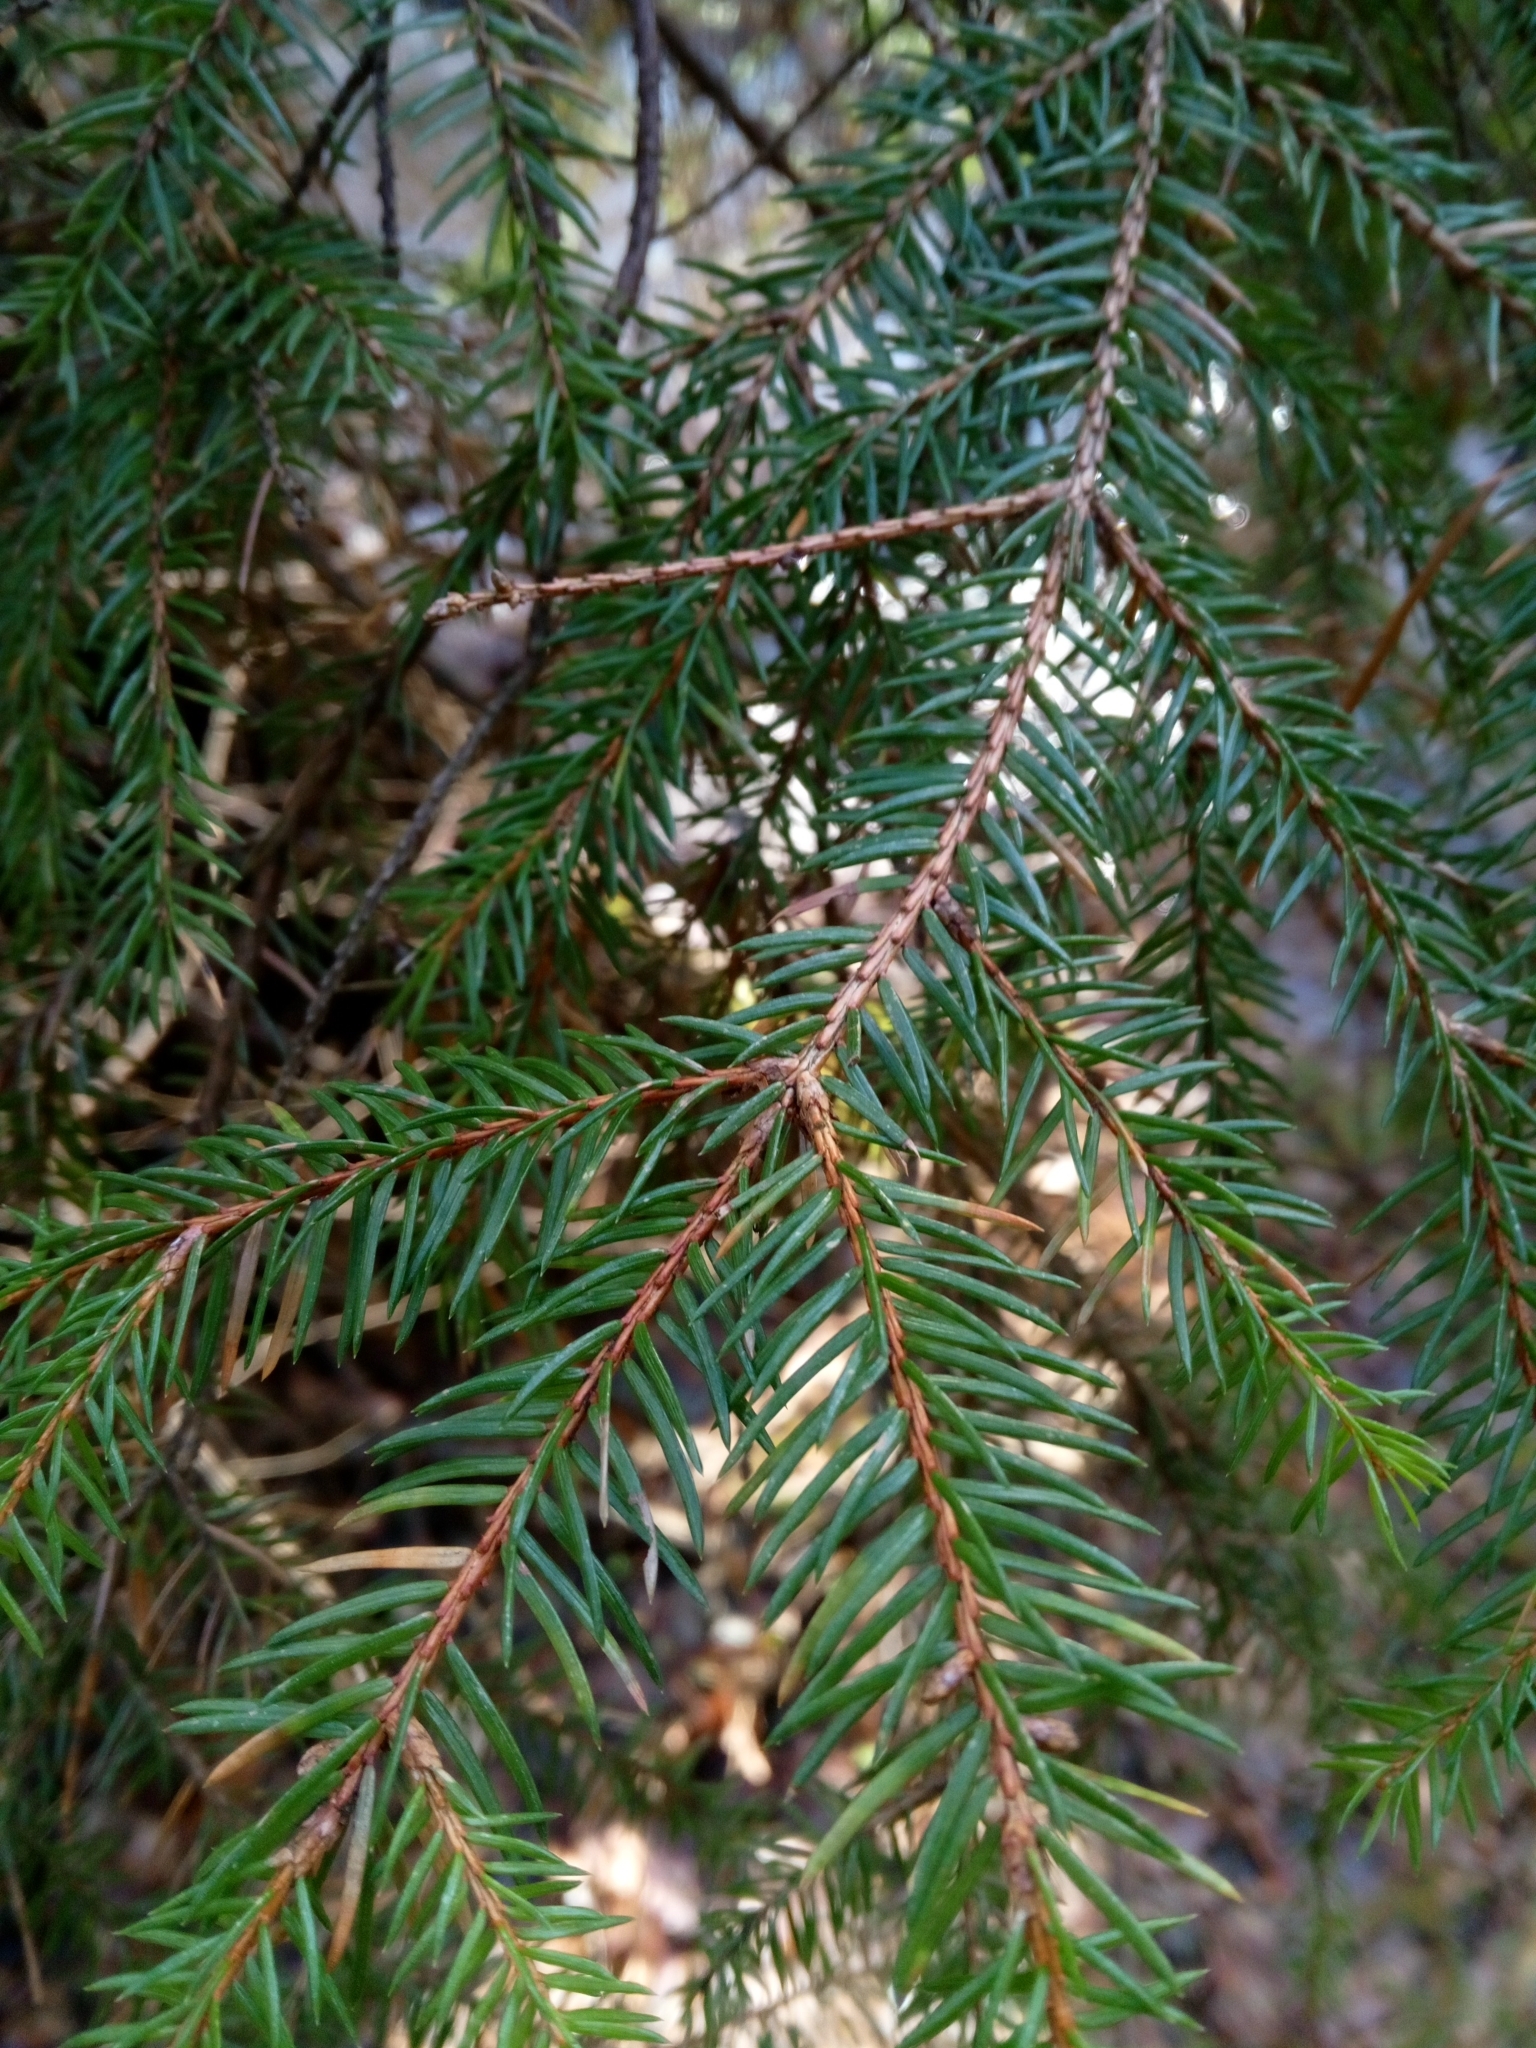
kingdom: Plantae
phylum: Tracheophyta
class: Pinopsida
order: Pinales
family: Pinaceae
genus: Picea
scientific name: Picea abies
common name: Norway spruce
